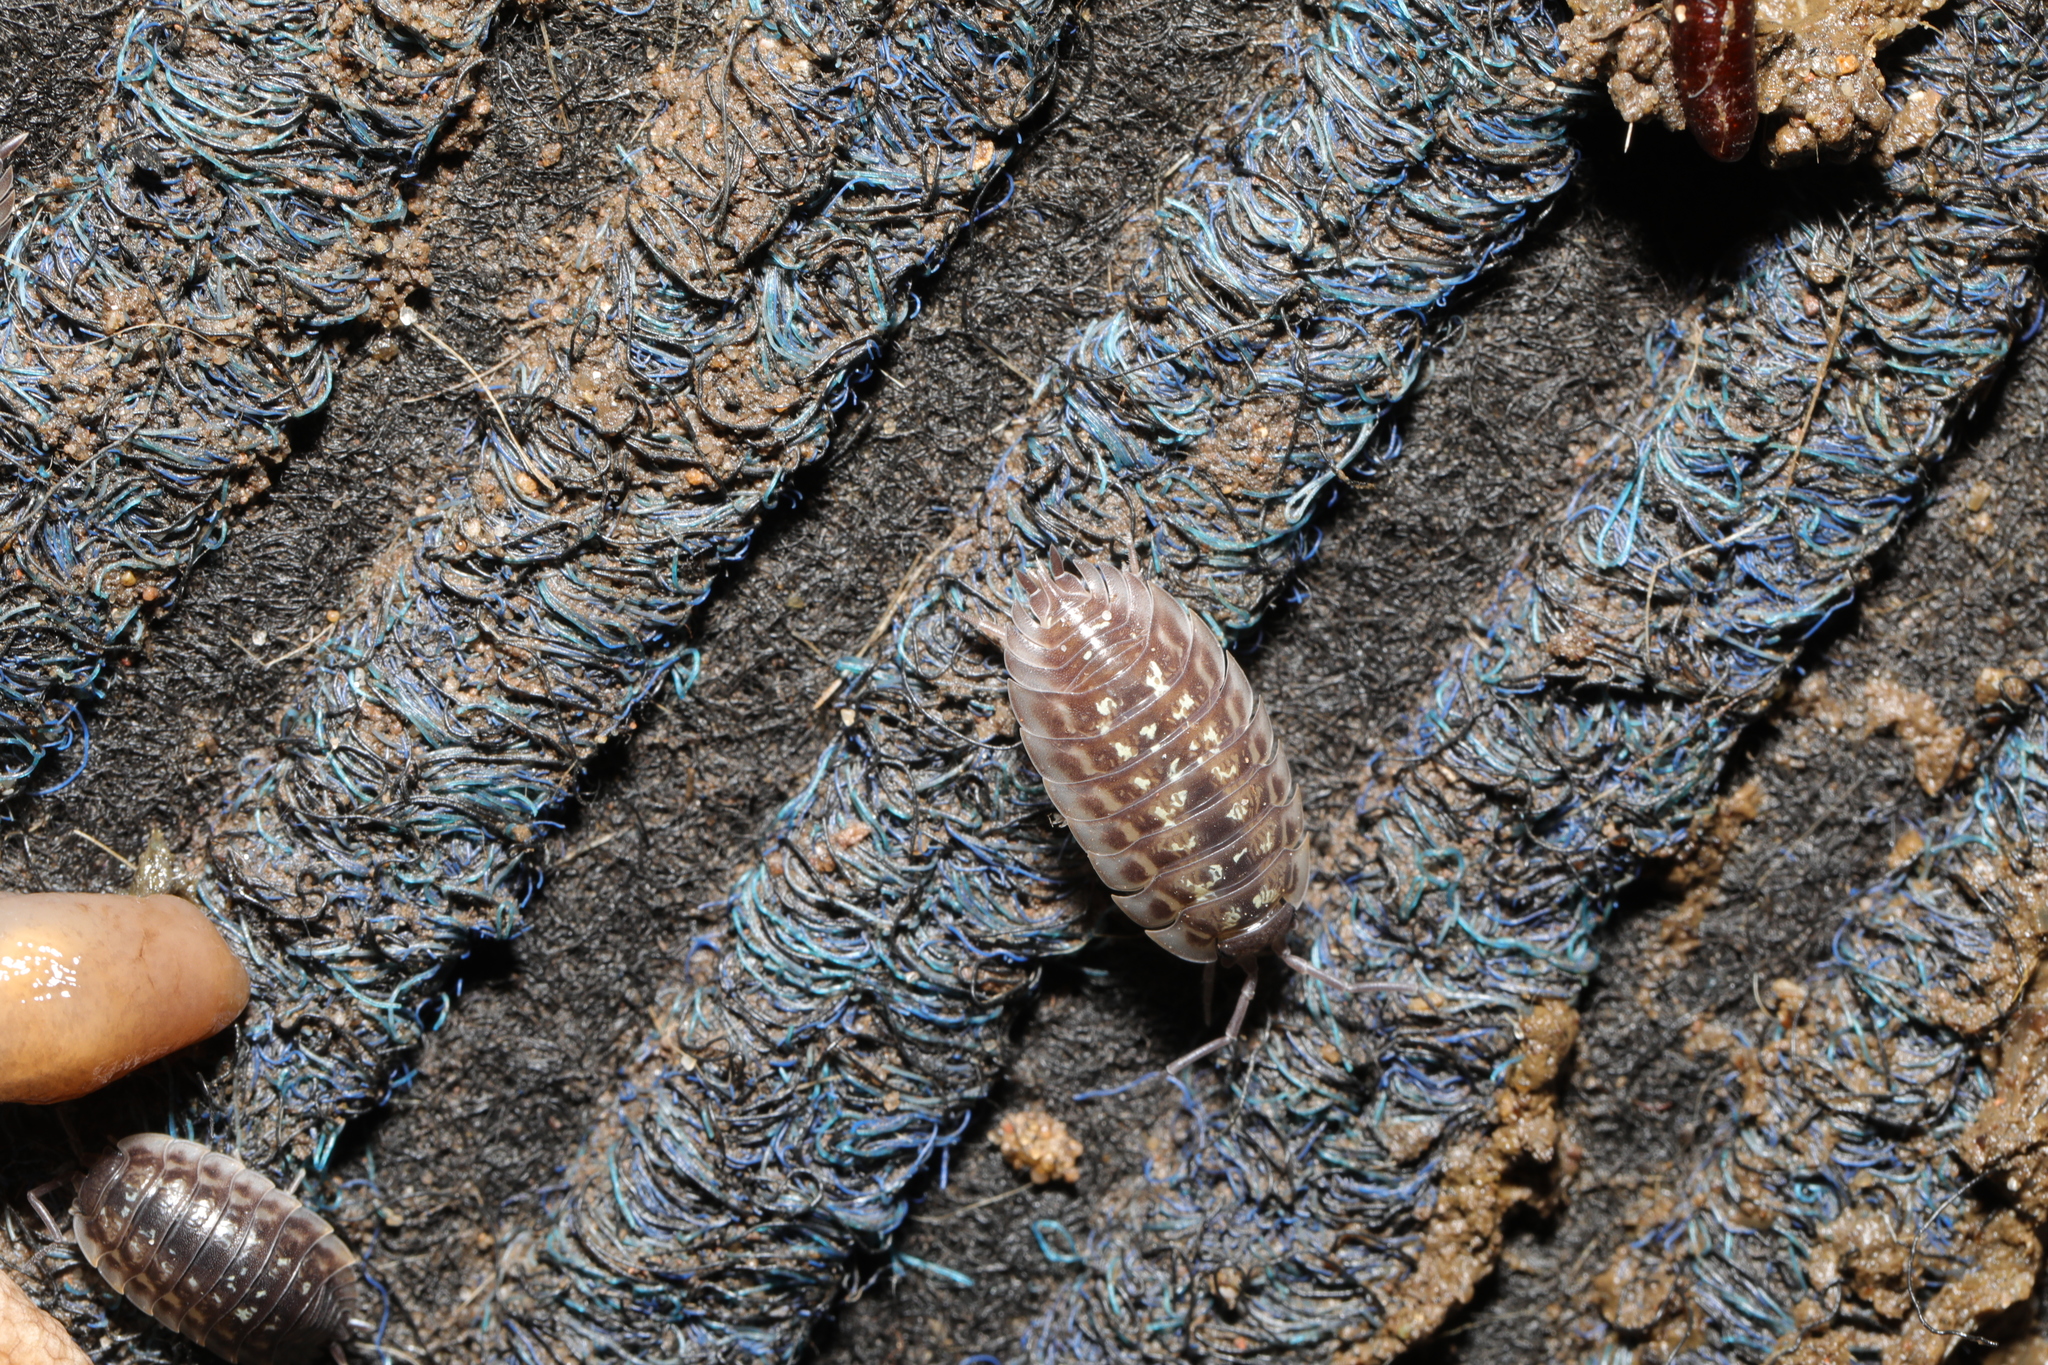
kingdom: Animalia
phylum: Arthropoda
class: Malacostraca
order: Isopoda
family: Oniscidae
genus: Oniscus
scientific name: Oniscus asellus
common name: Common shiny woodlouse
